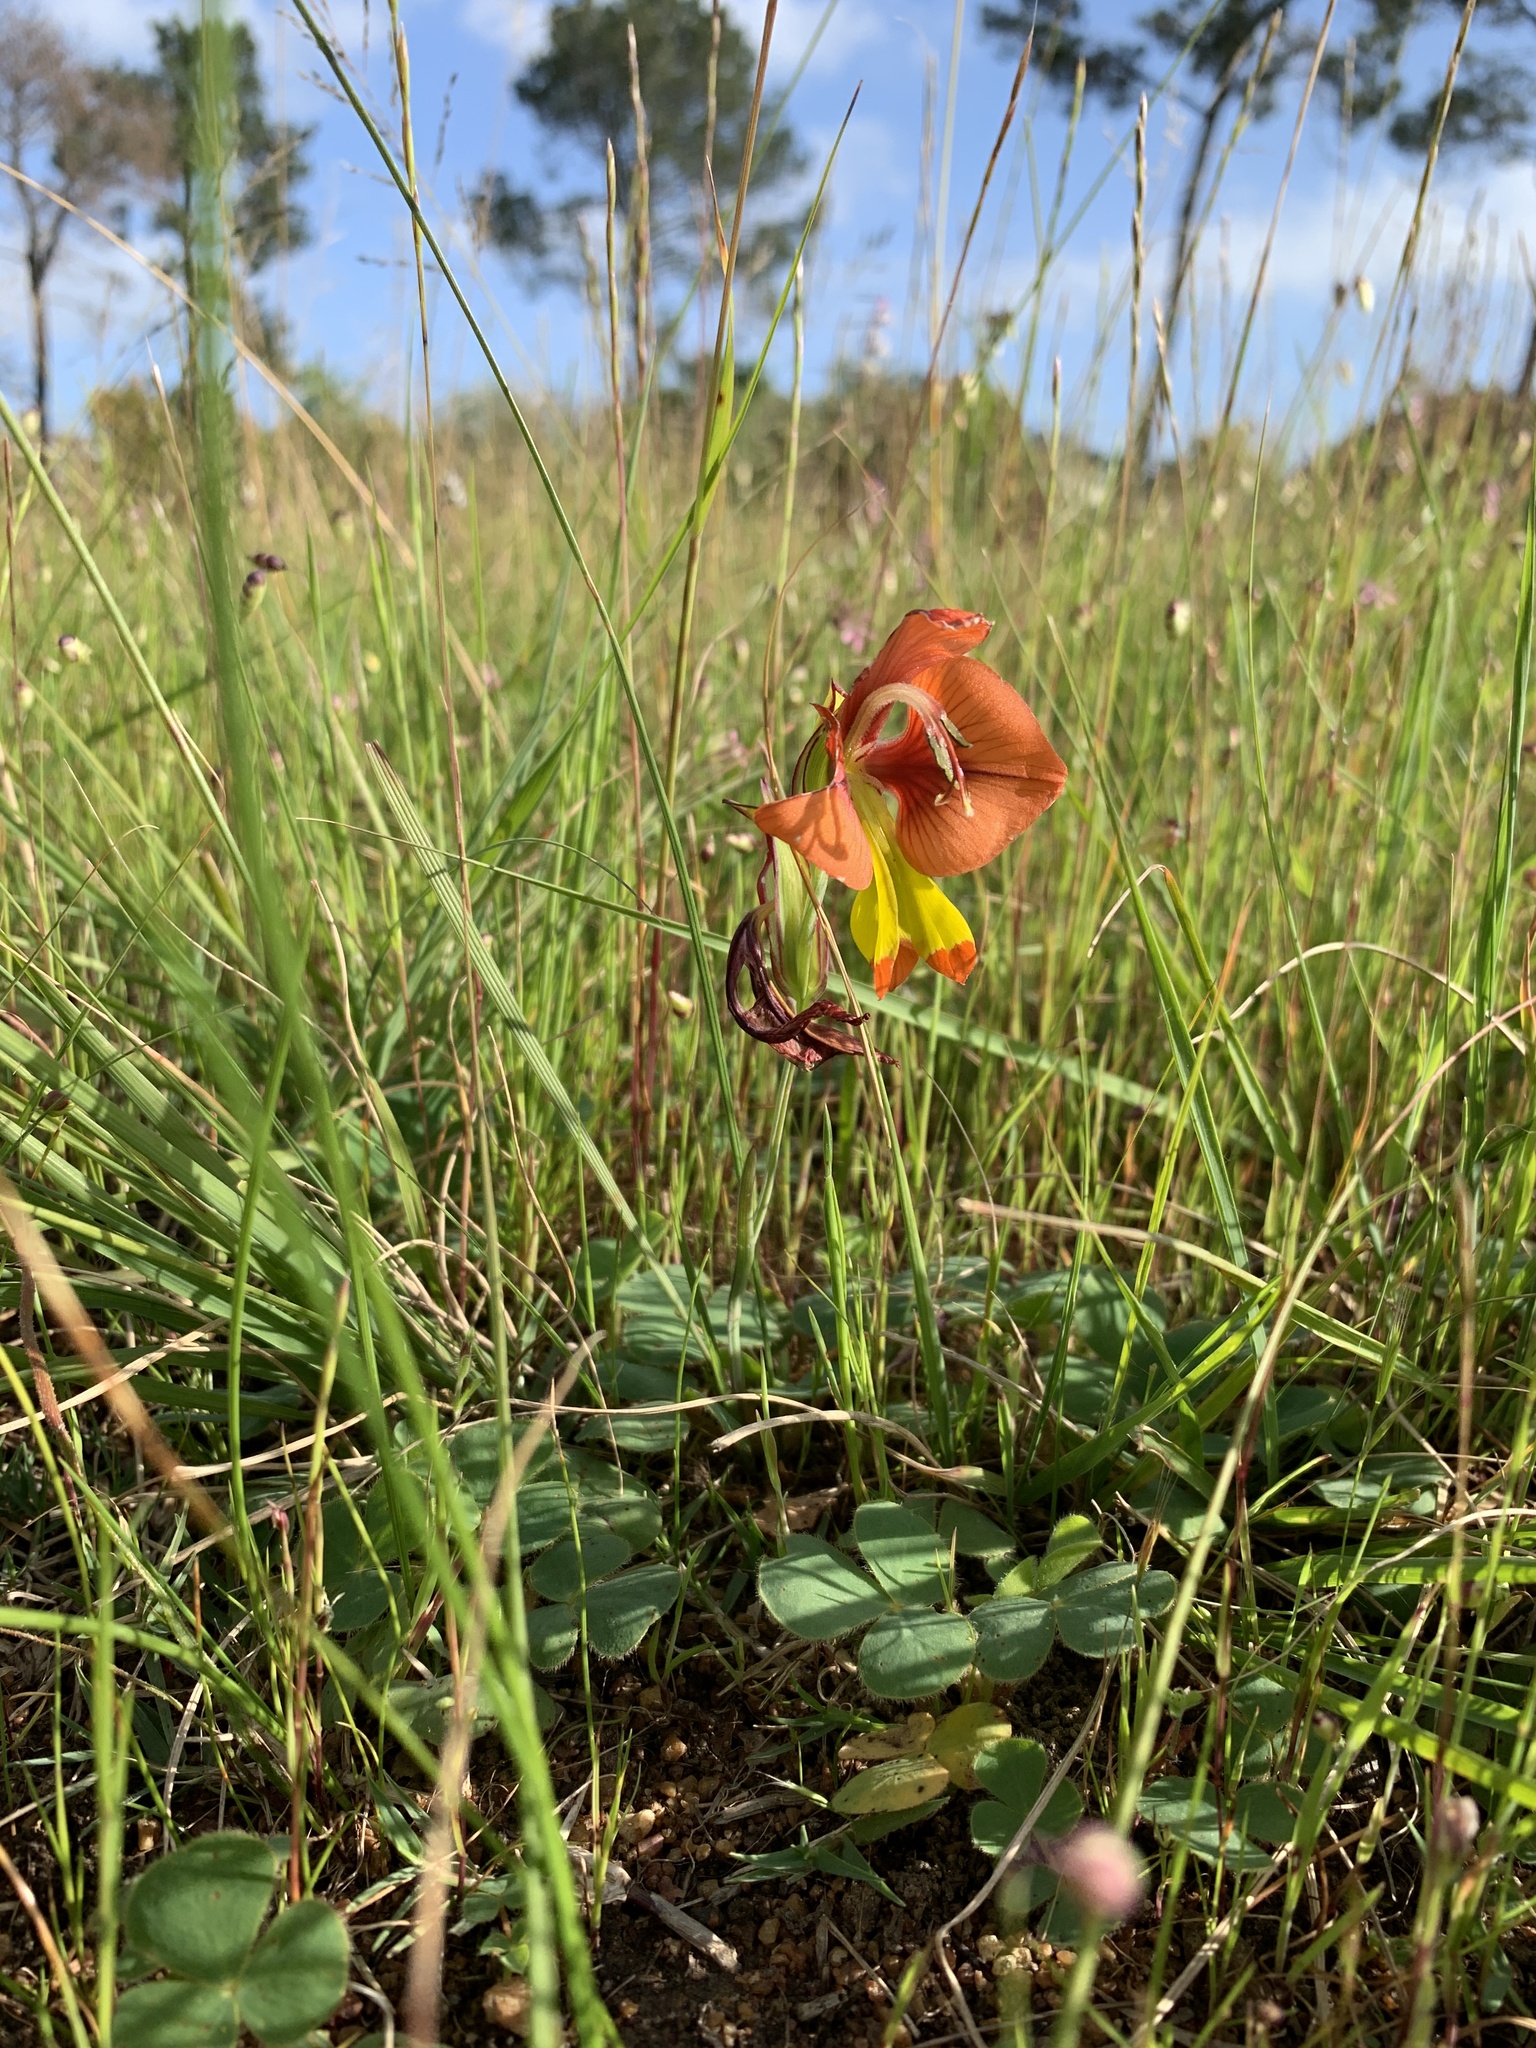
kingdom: Plantae
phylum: Tracheophyta
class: Liliopsida
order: Asparagales
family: Iridaceae
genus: Gladiolus
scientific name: Gladiolus alatus
